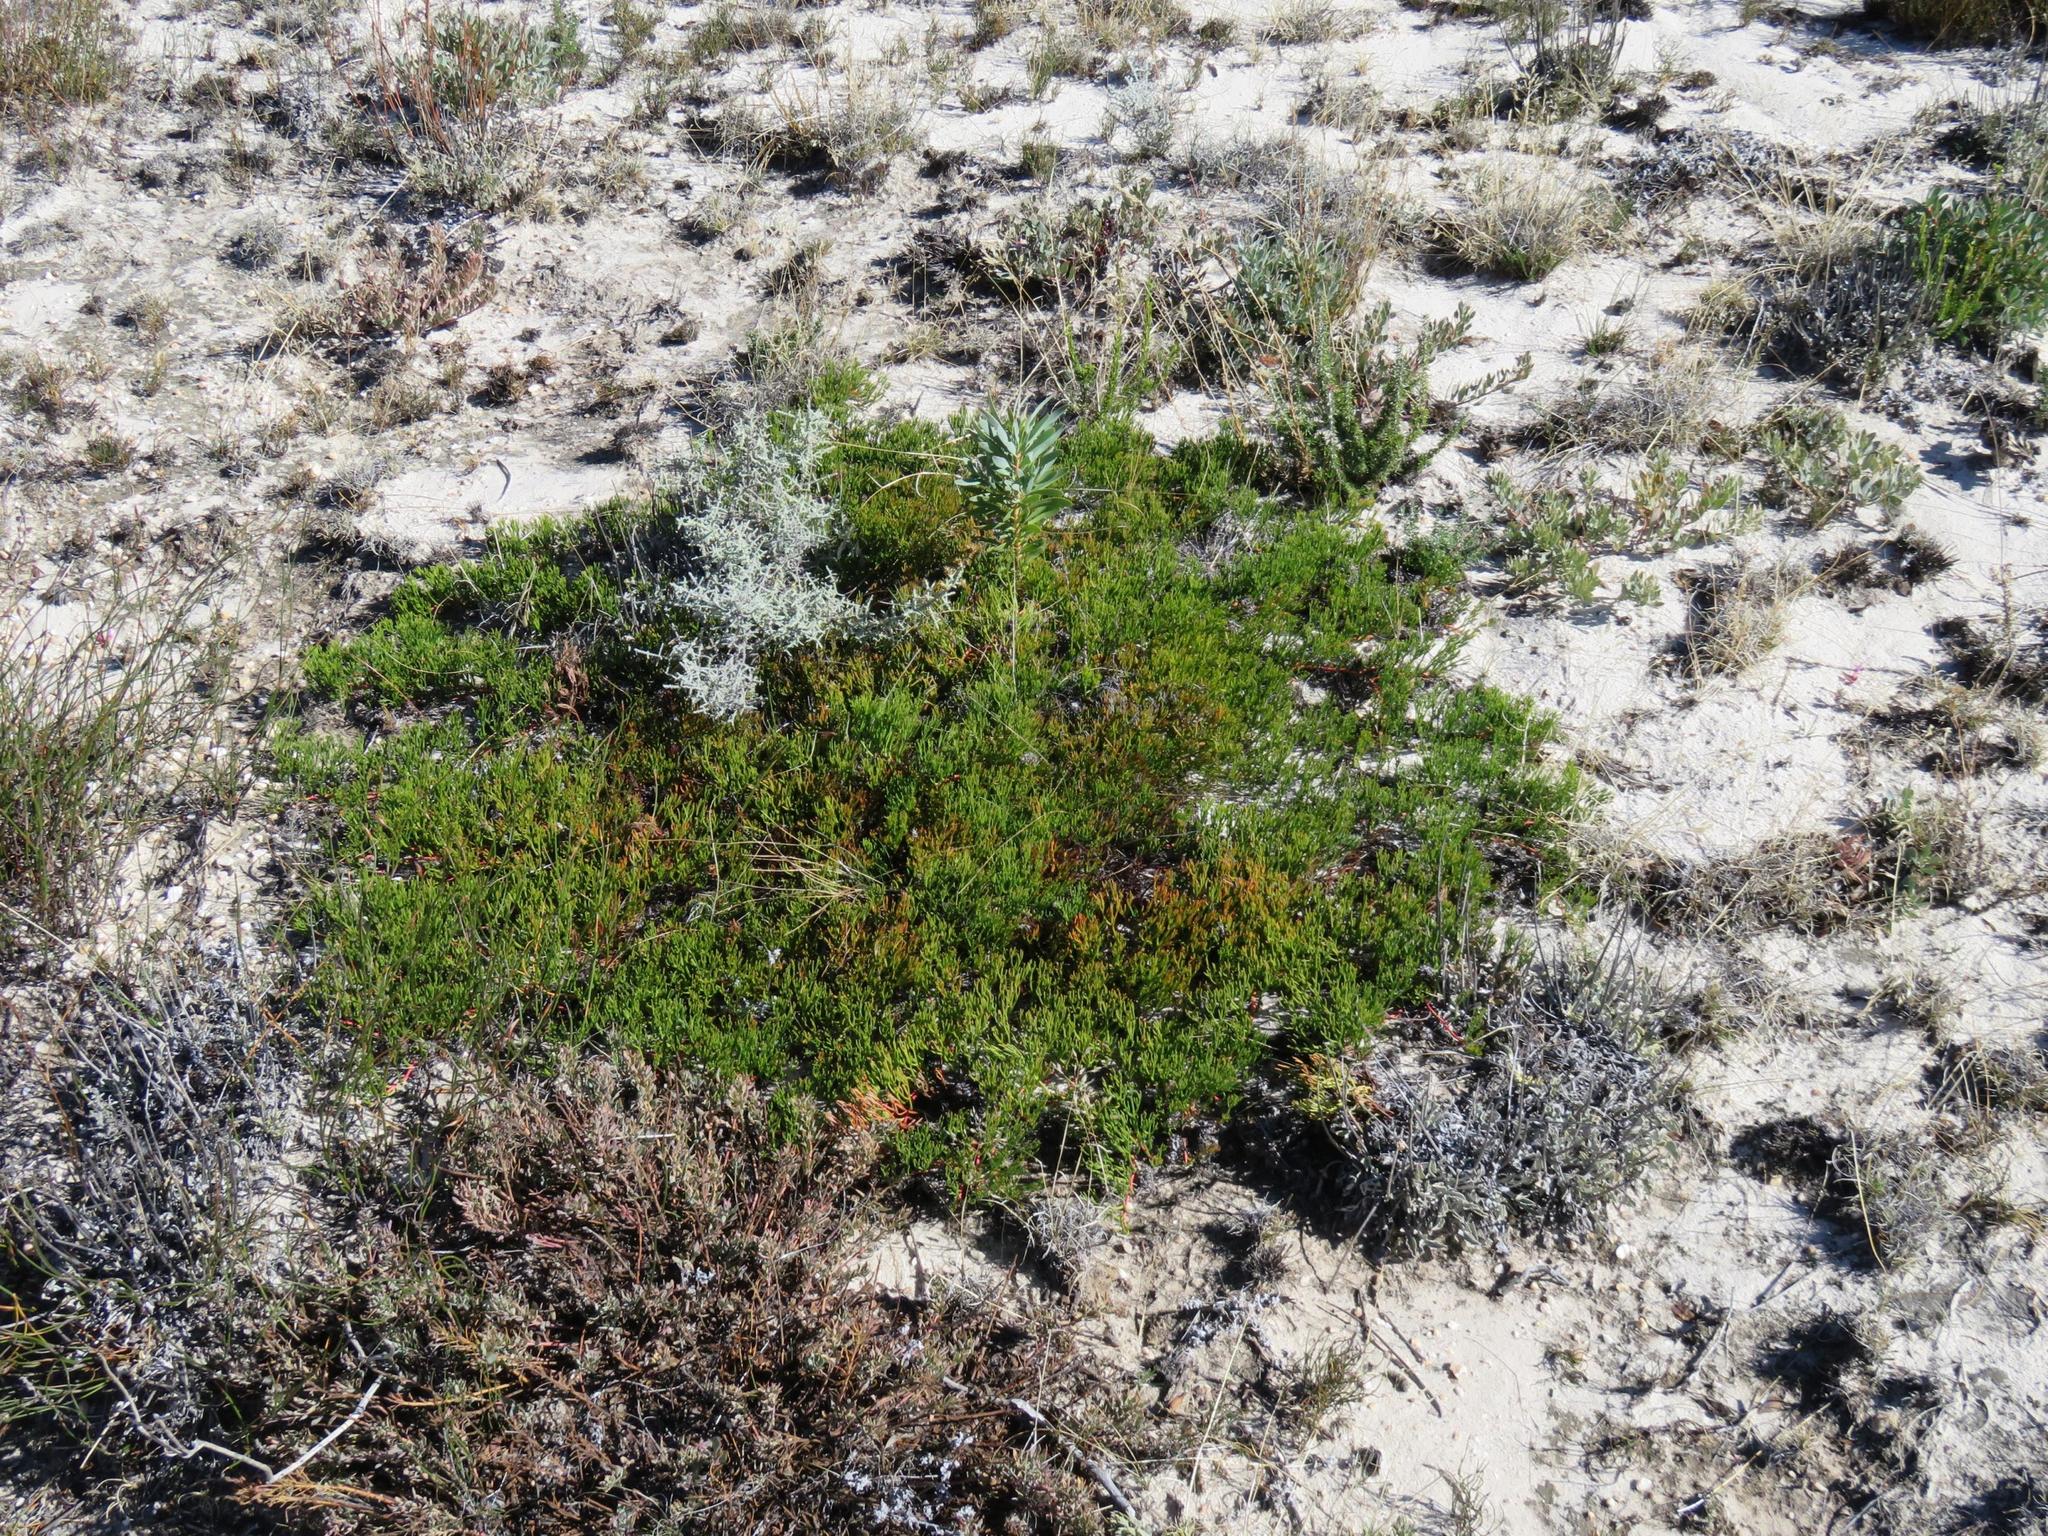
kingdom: Plantae
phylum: Tracheophyta
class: Magnoliopsida
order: Proteales
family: Proteaceae
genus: Serruria
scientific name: Serruria cygnea
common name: Swan spiderhead
